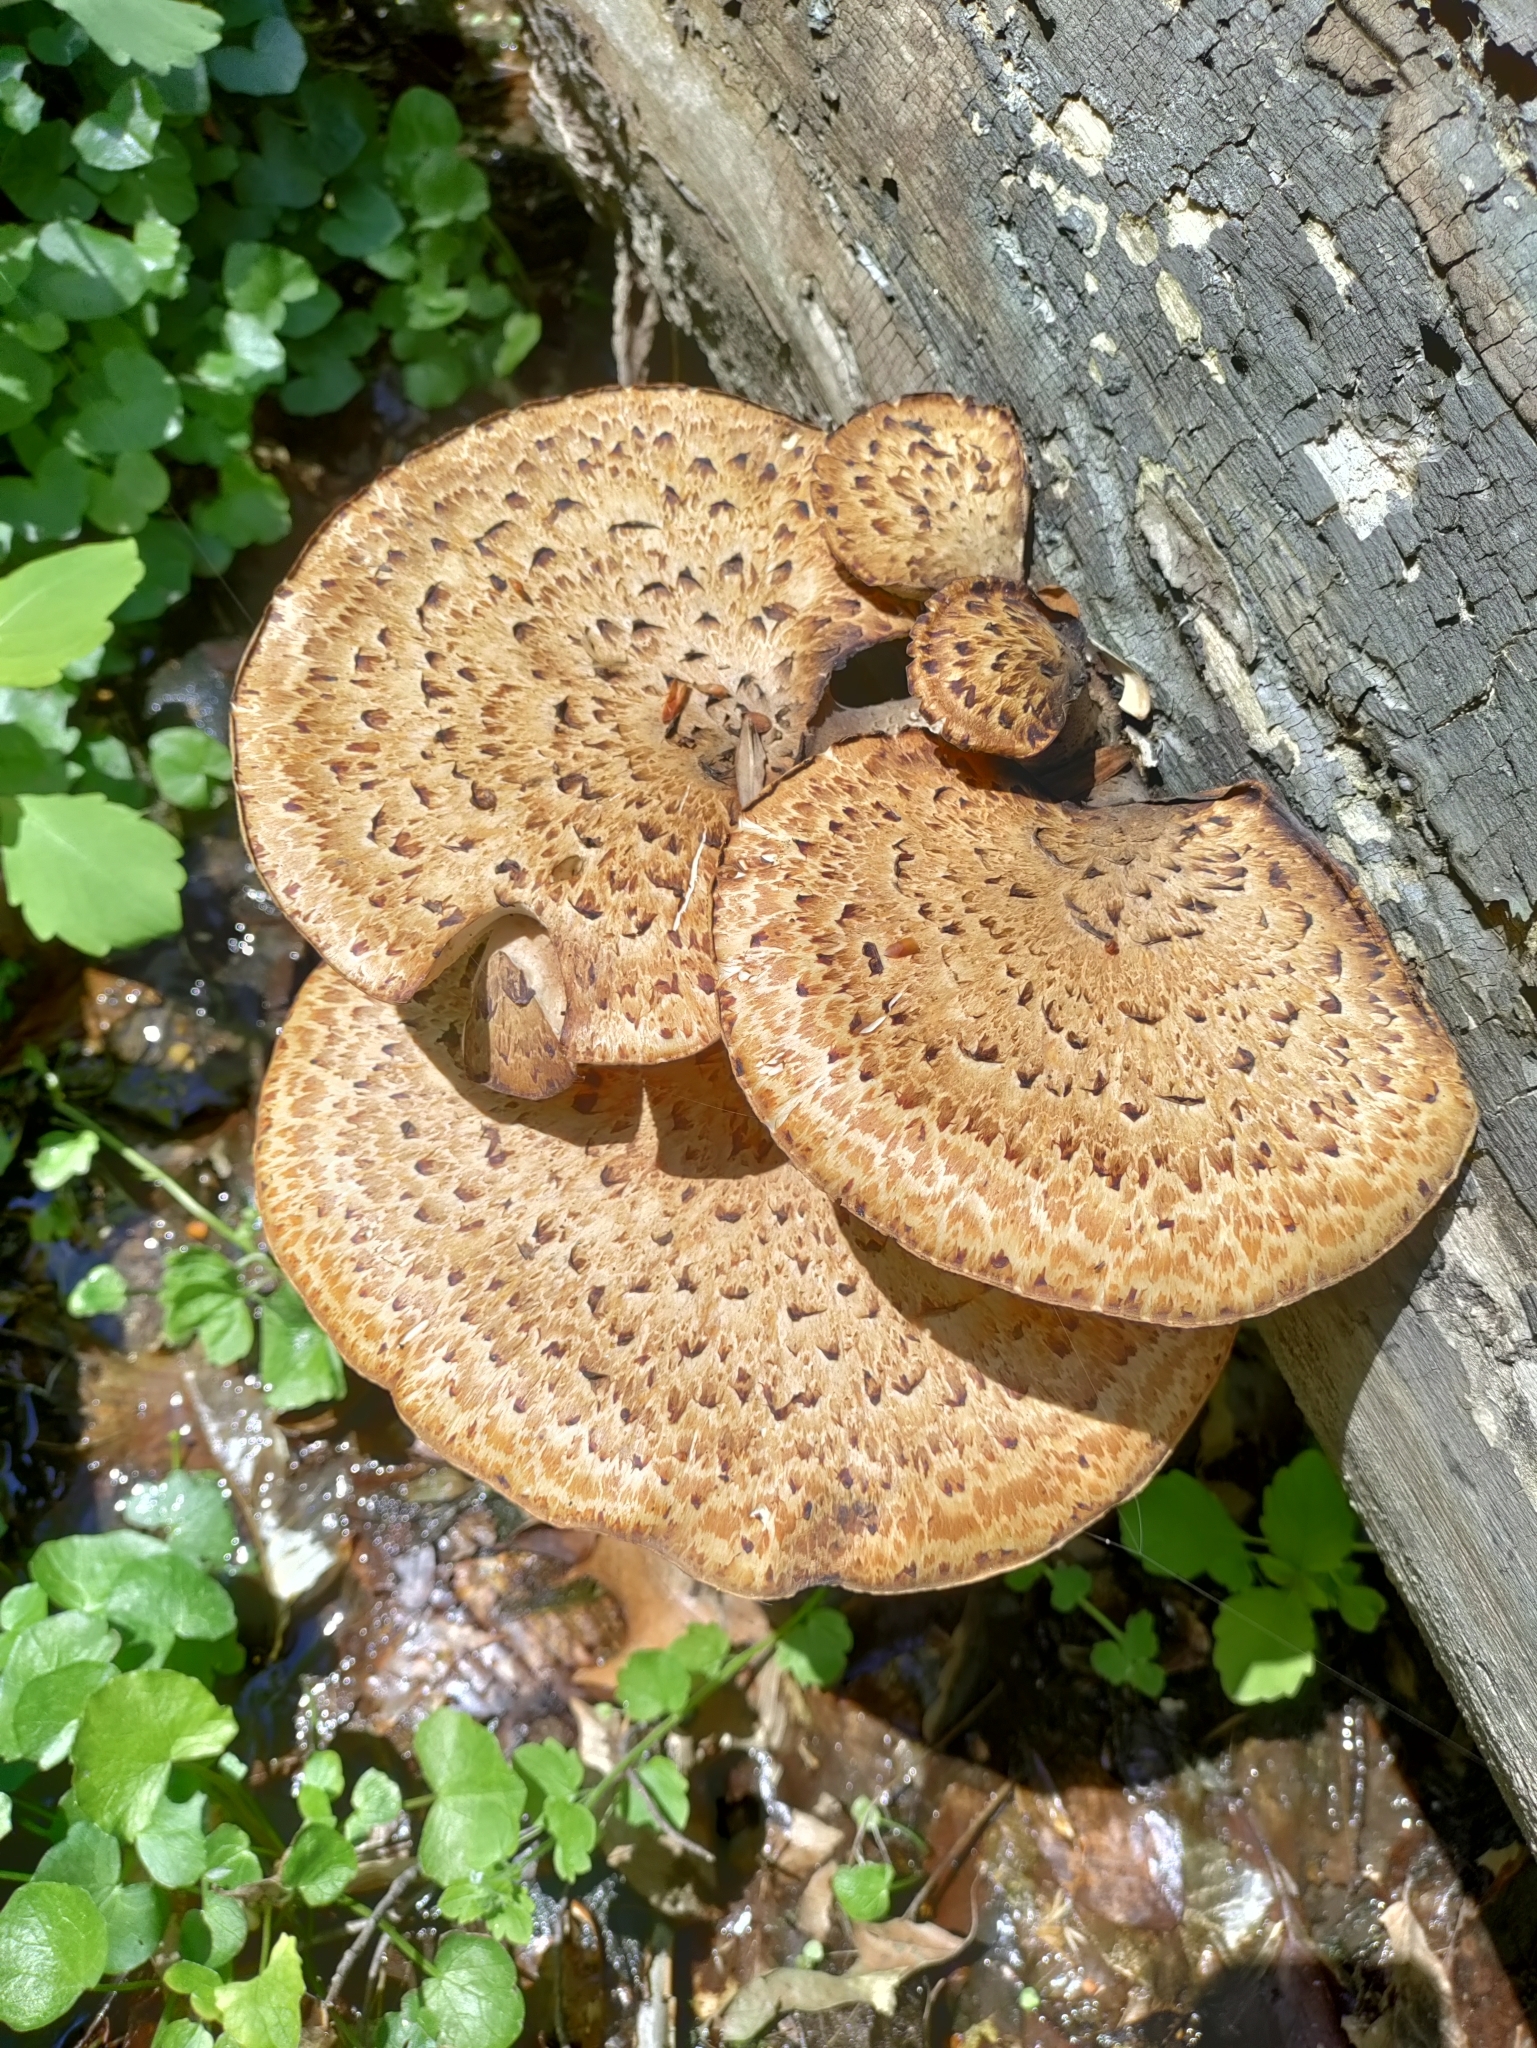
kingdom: Fungi
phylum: Basidiomycota
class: Agaricomycetes
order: Polyporales
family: Polyporaceae
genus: Cerioporus
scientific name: Cerioporus squamosus
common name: Dryad's saddle
